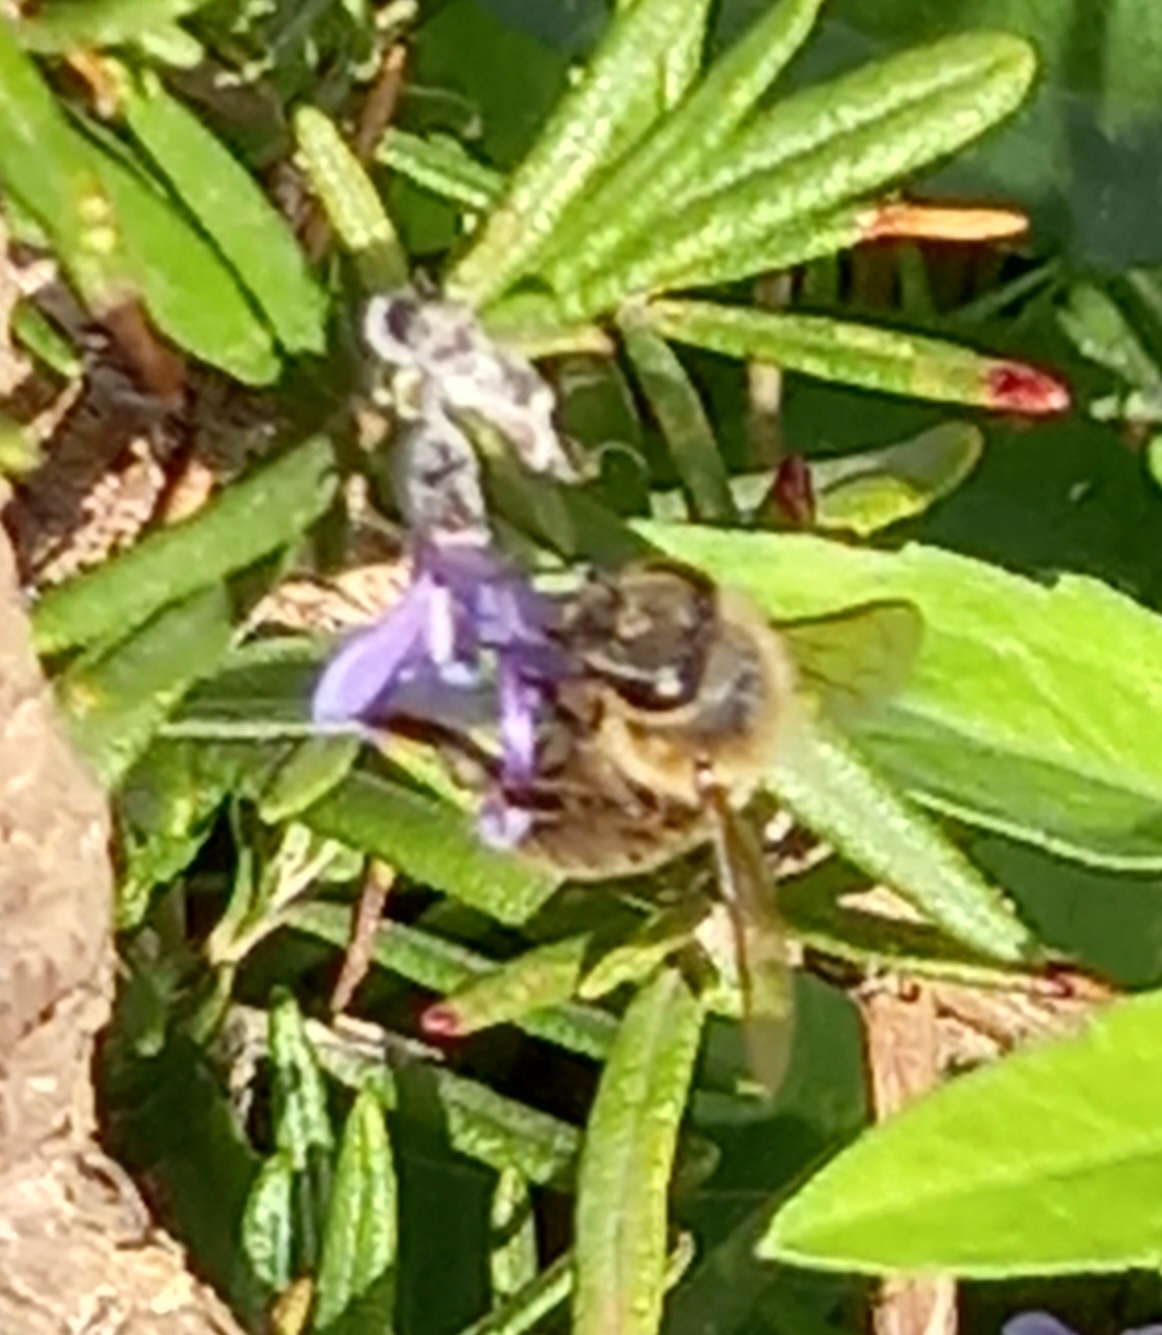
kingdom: Animalia
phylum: Arthropoda
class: Insecta
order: Hymenoptera
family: Apidae
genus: Apis
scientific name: Apis mellifera
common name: Honey bee
